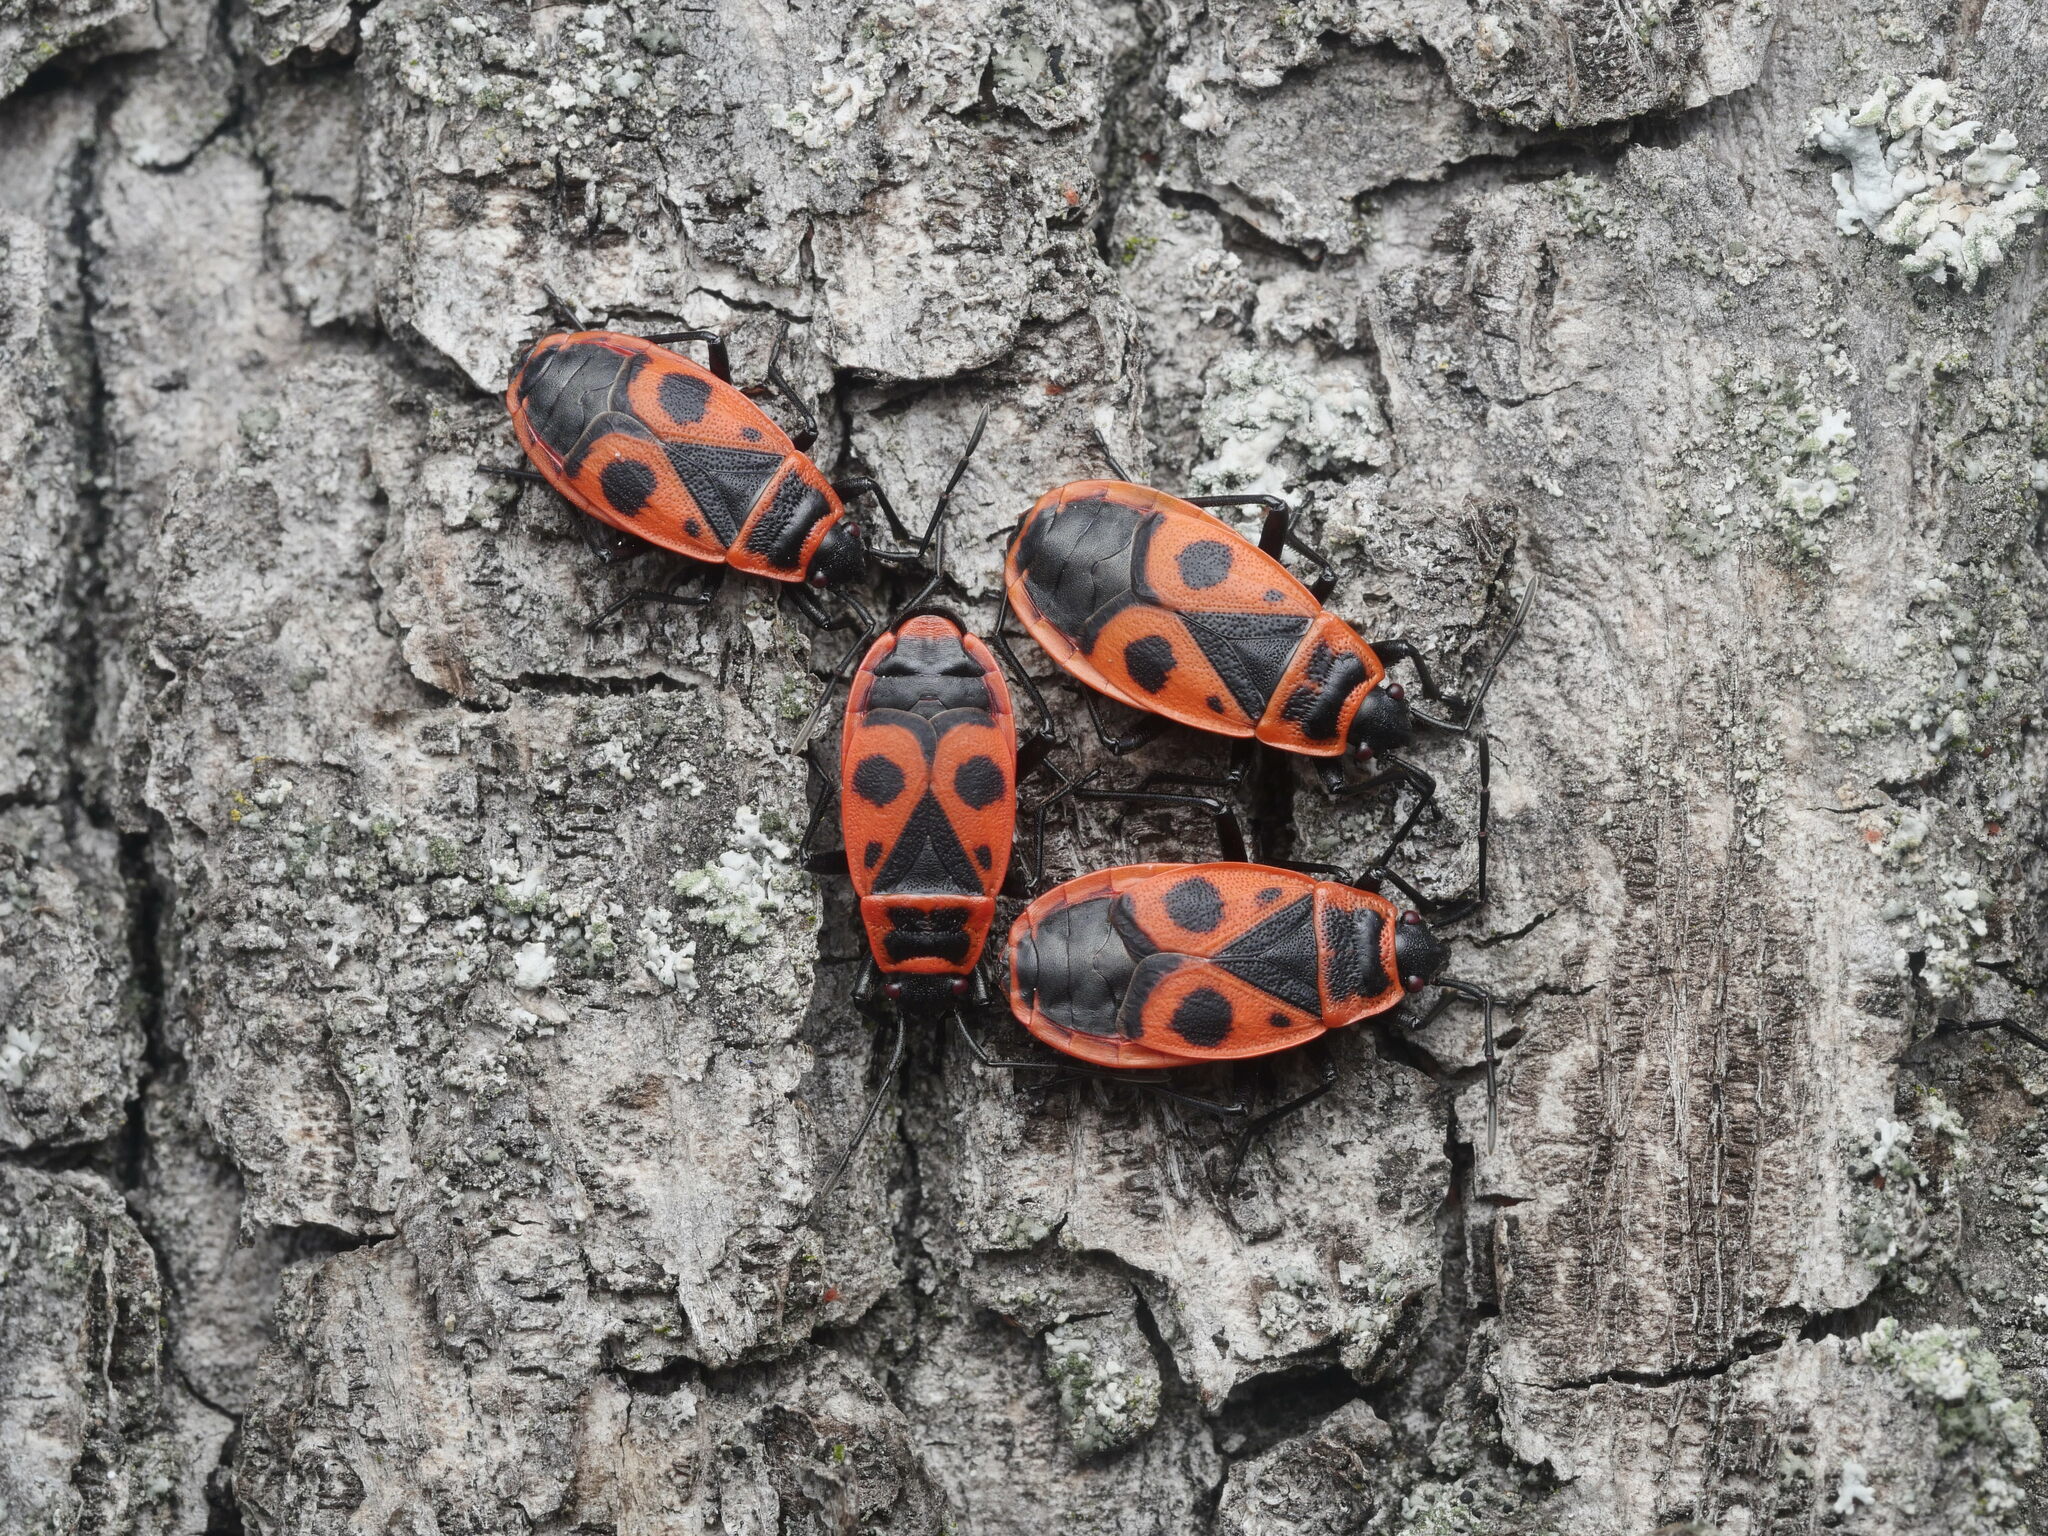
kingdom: Animalia
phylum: Arthropoda
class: Insecta
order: Hemiptera
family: Pyrrhocoridae
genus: Pyrrhocoris
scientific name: Pyrrhocoris apterus
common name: Firebug
